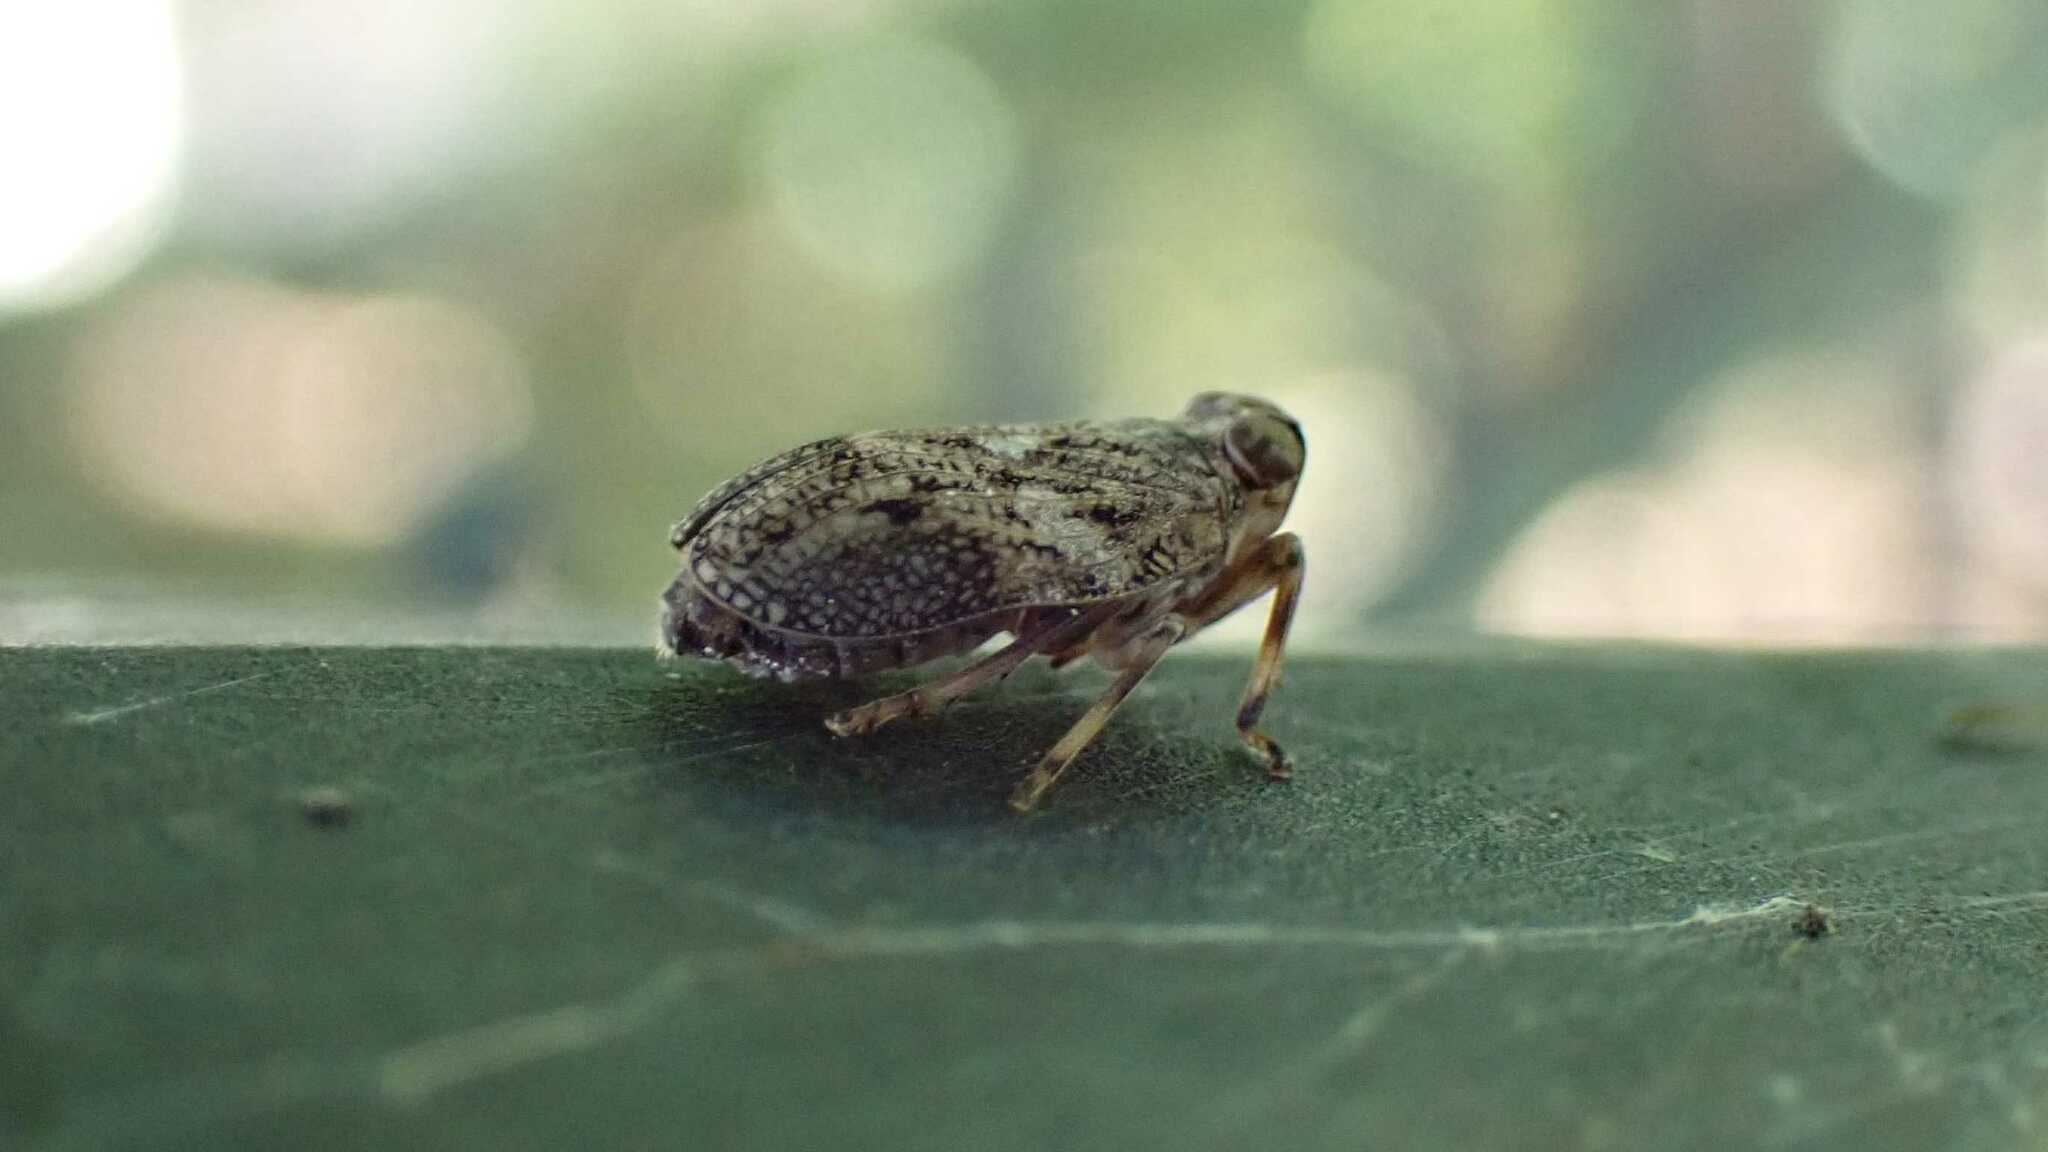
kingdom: Animalia
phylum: Arthropoda
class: Insecta
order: Hemiptera
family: Issidae
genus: Issus
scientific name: Issus coleoptratus
